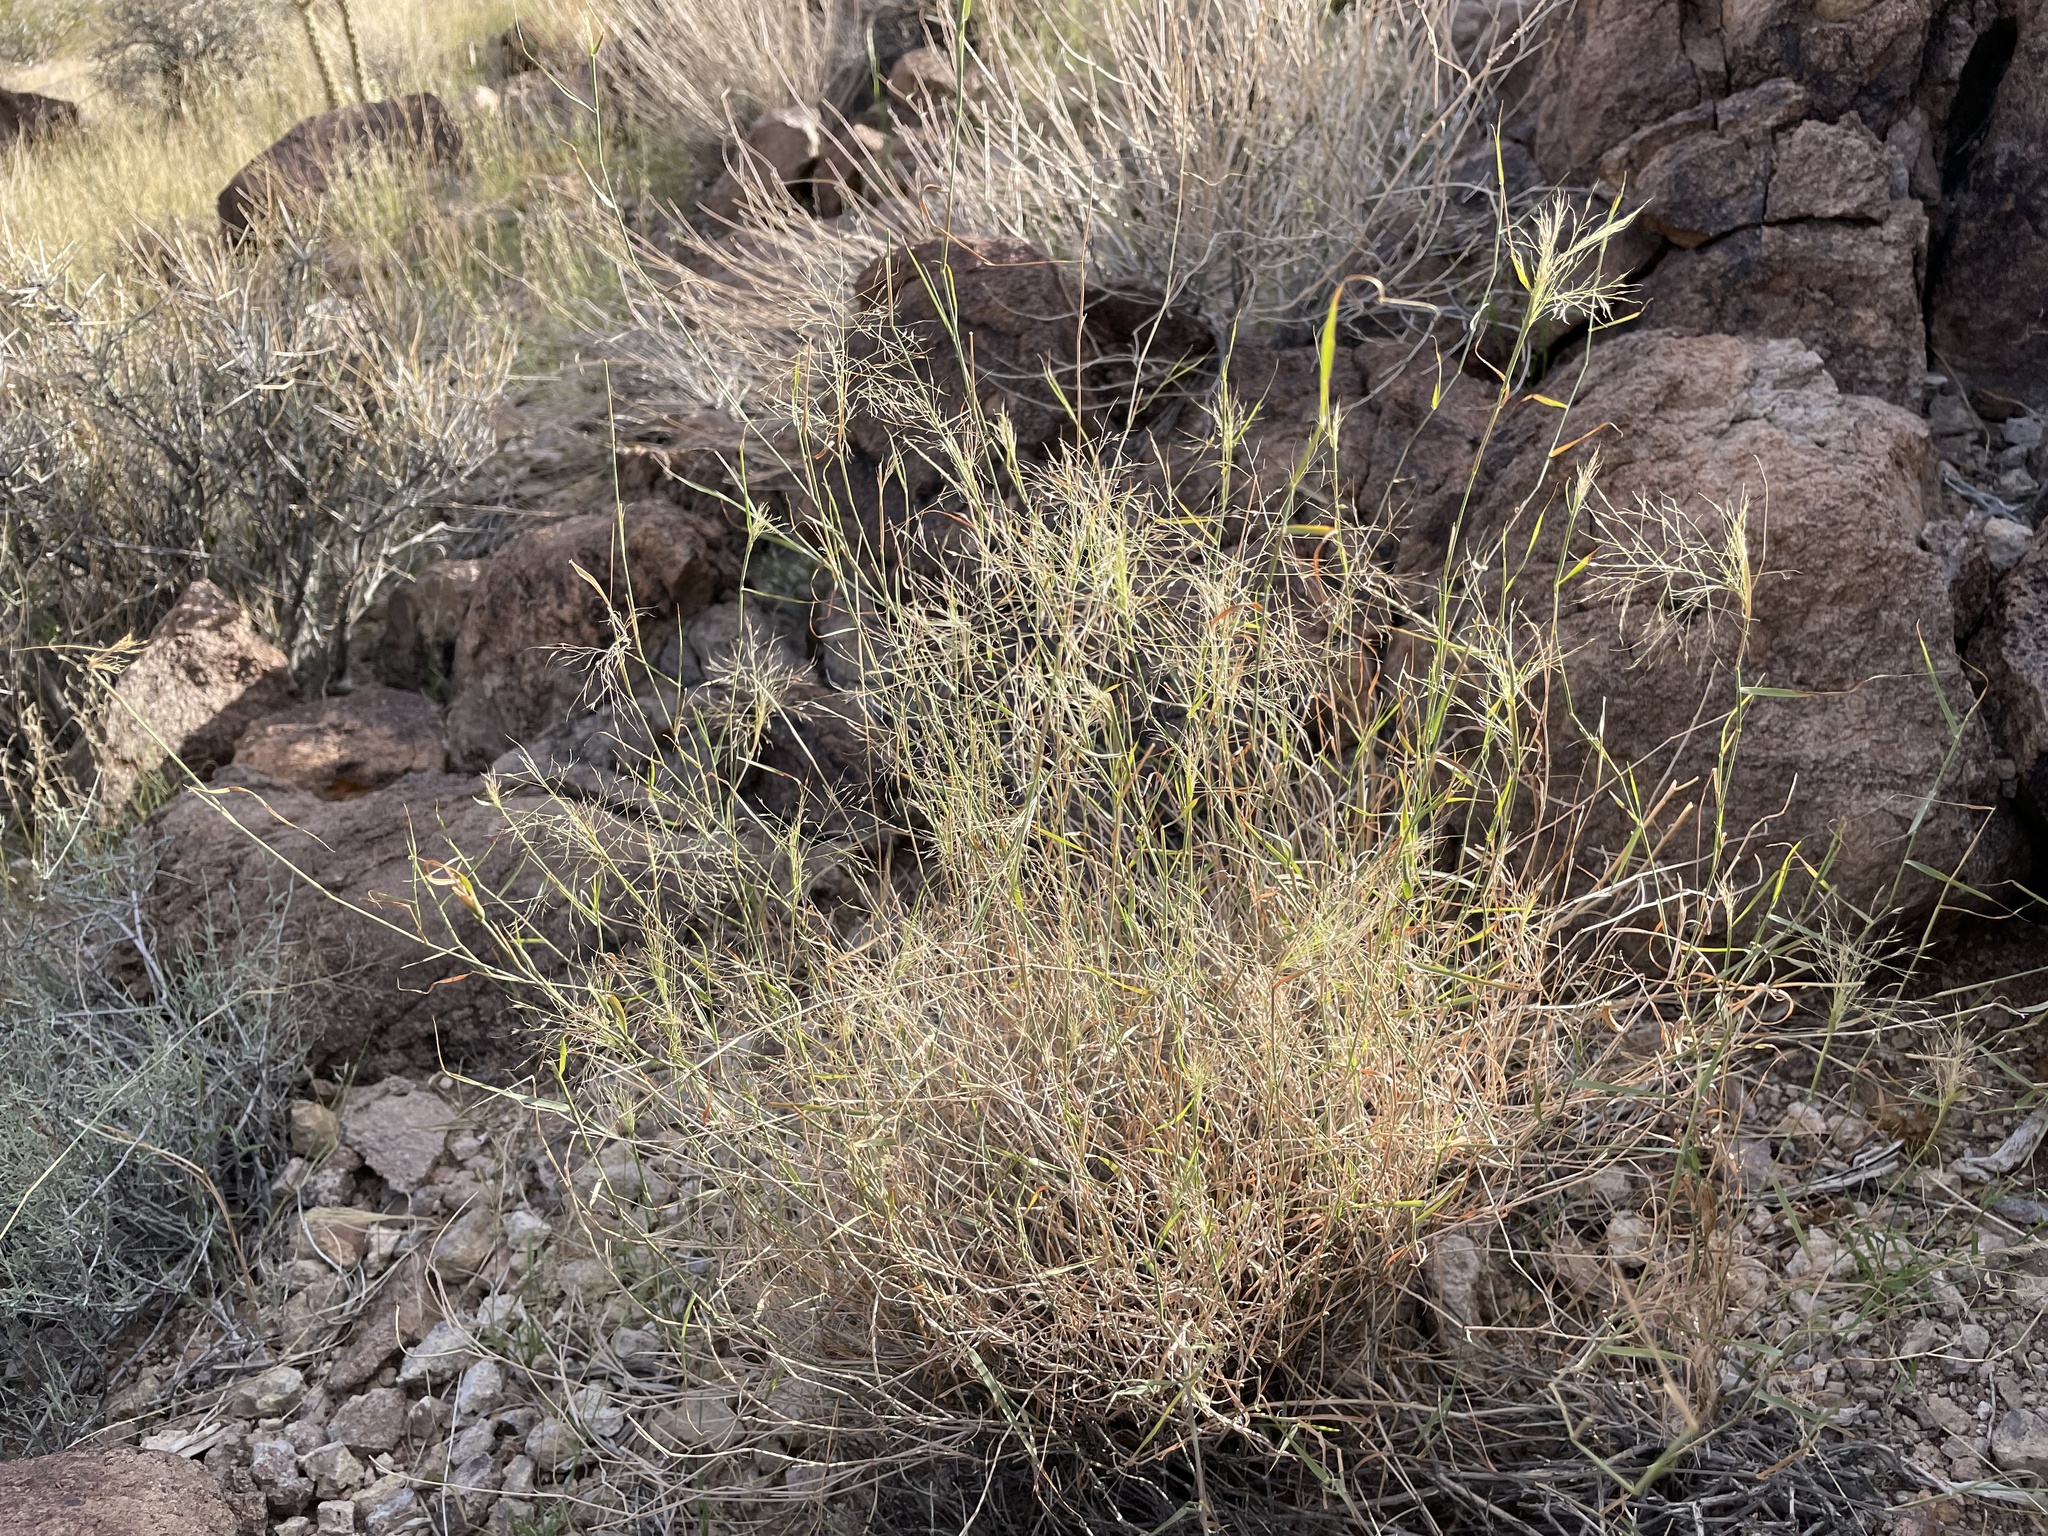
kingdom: Plantae
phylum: Tracheophyta
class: Liliopsida
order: Poales
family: Poaceae
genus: Muhlenbergia
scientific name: Muhlenbergia porteri
